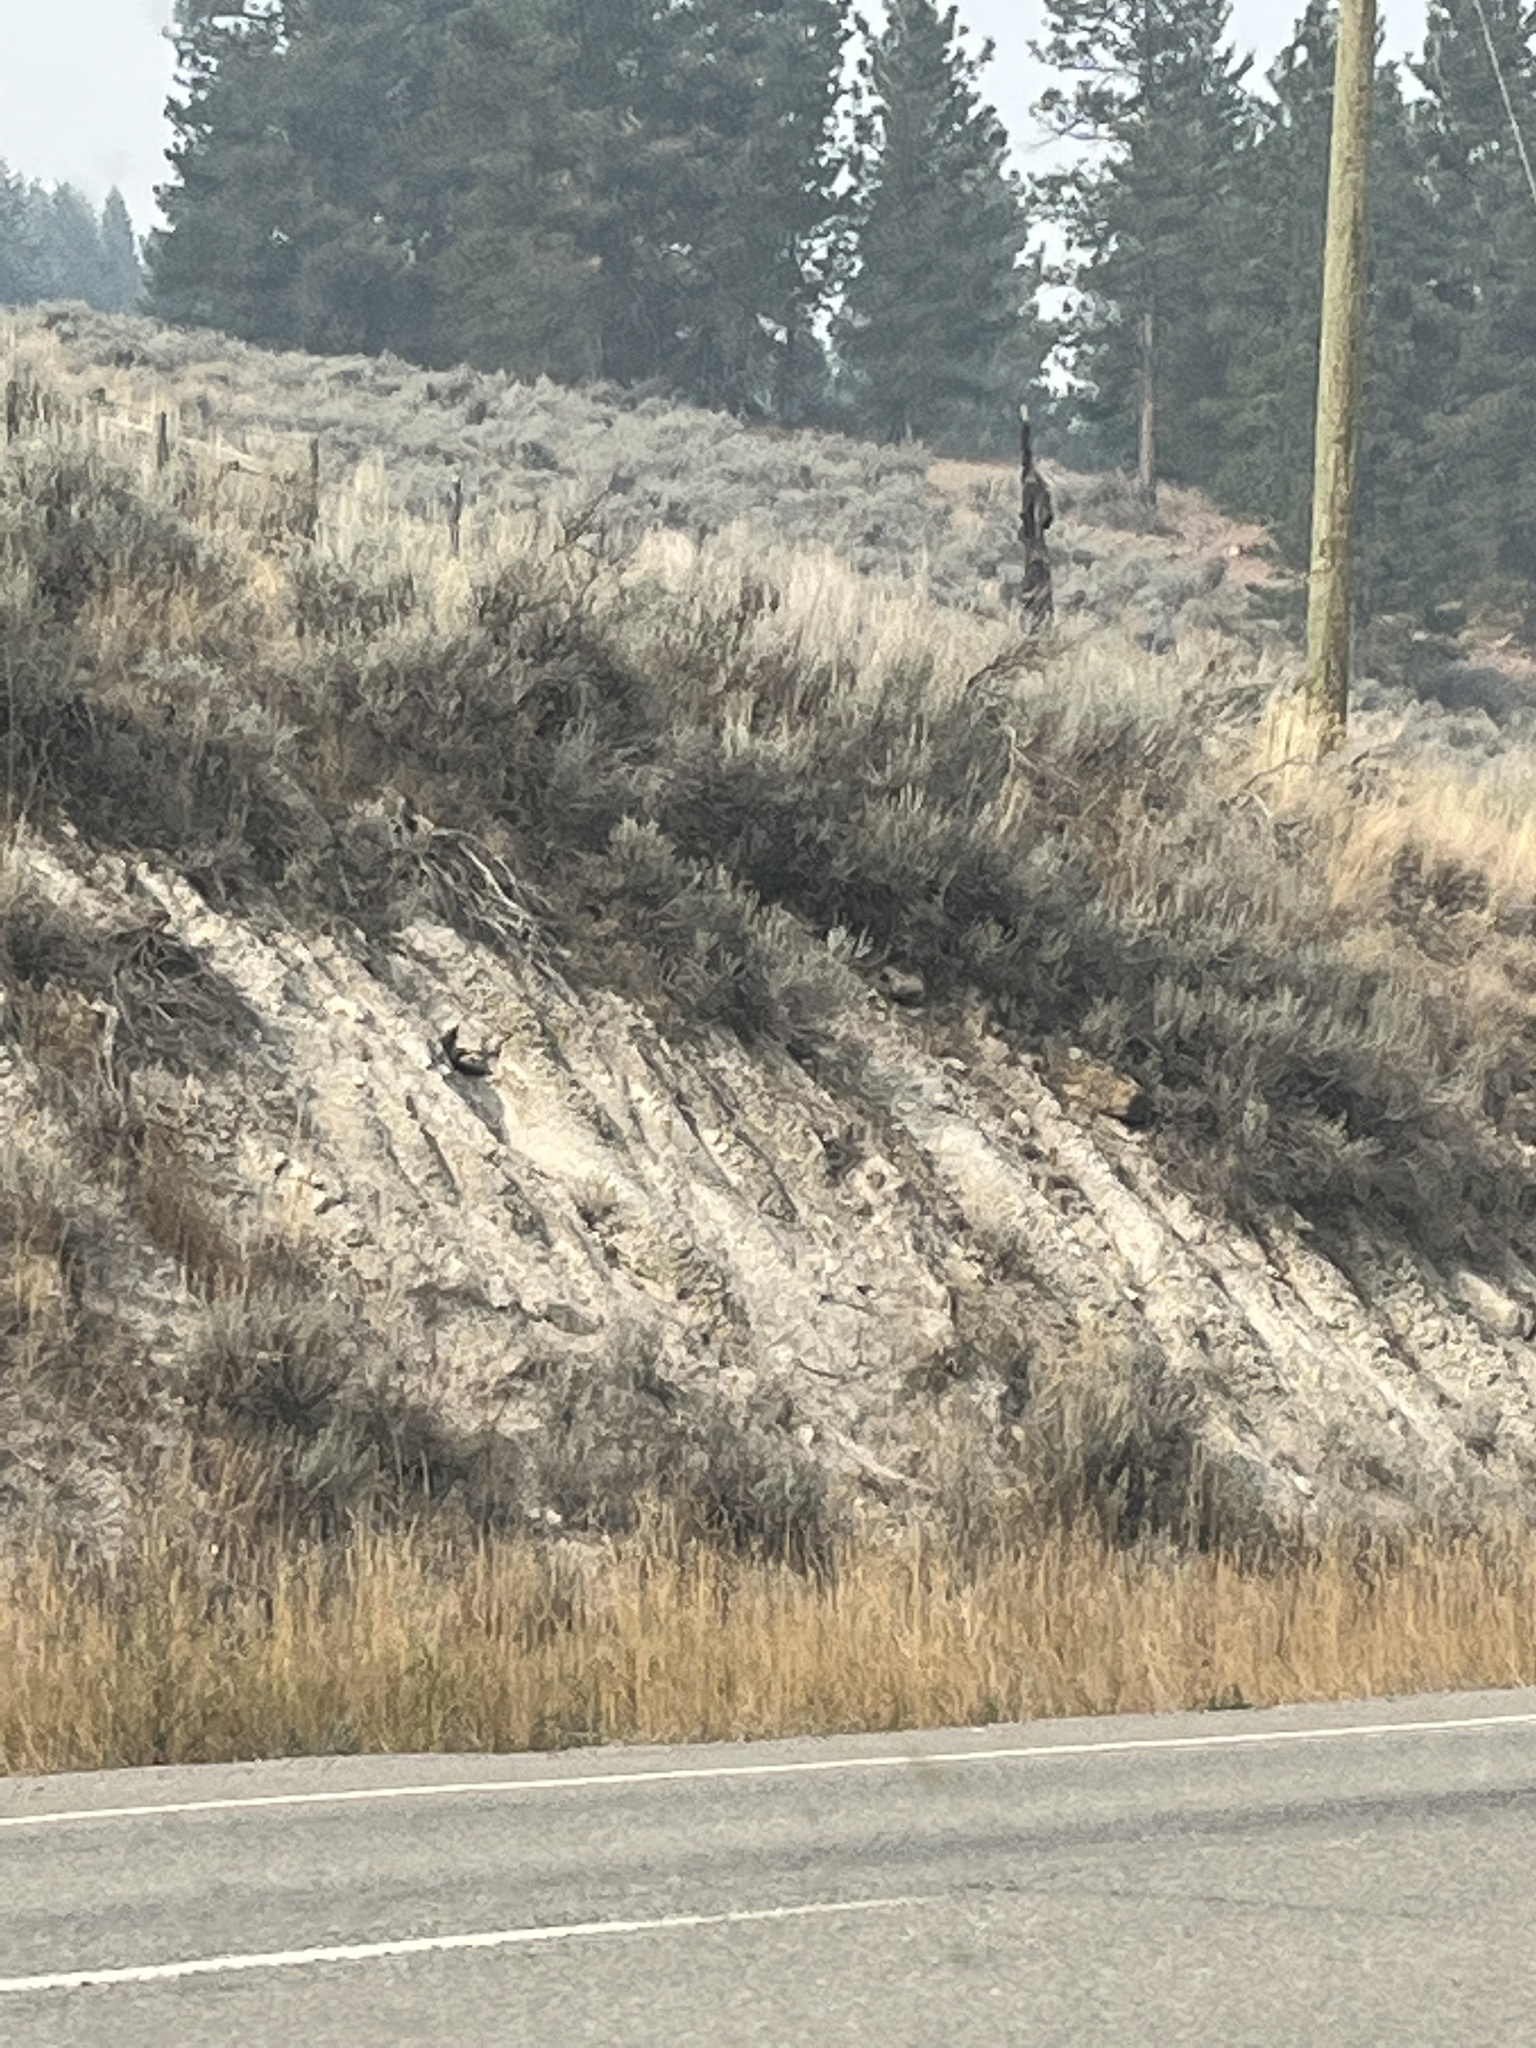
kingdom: Plantae
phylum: Tracheophyta
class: Magnoliopsida
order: Asterales
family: Asteraceae
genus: Artemisia
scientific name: Artemisia tridentata
